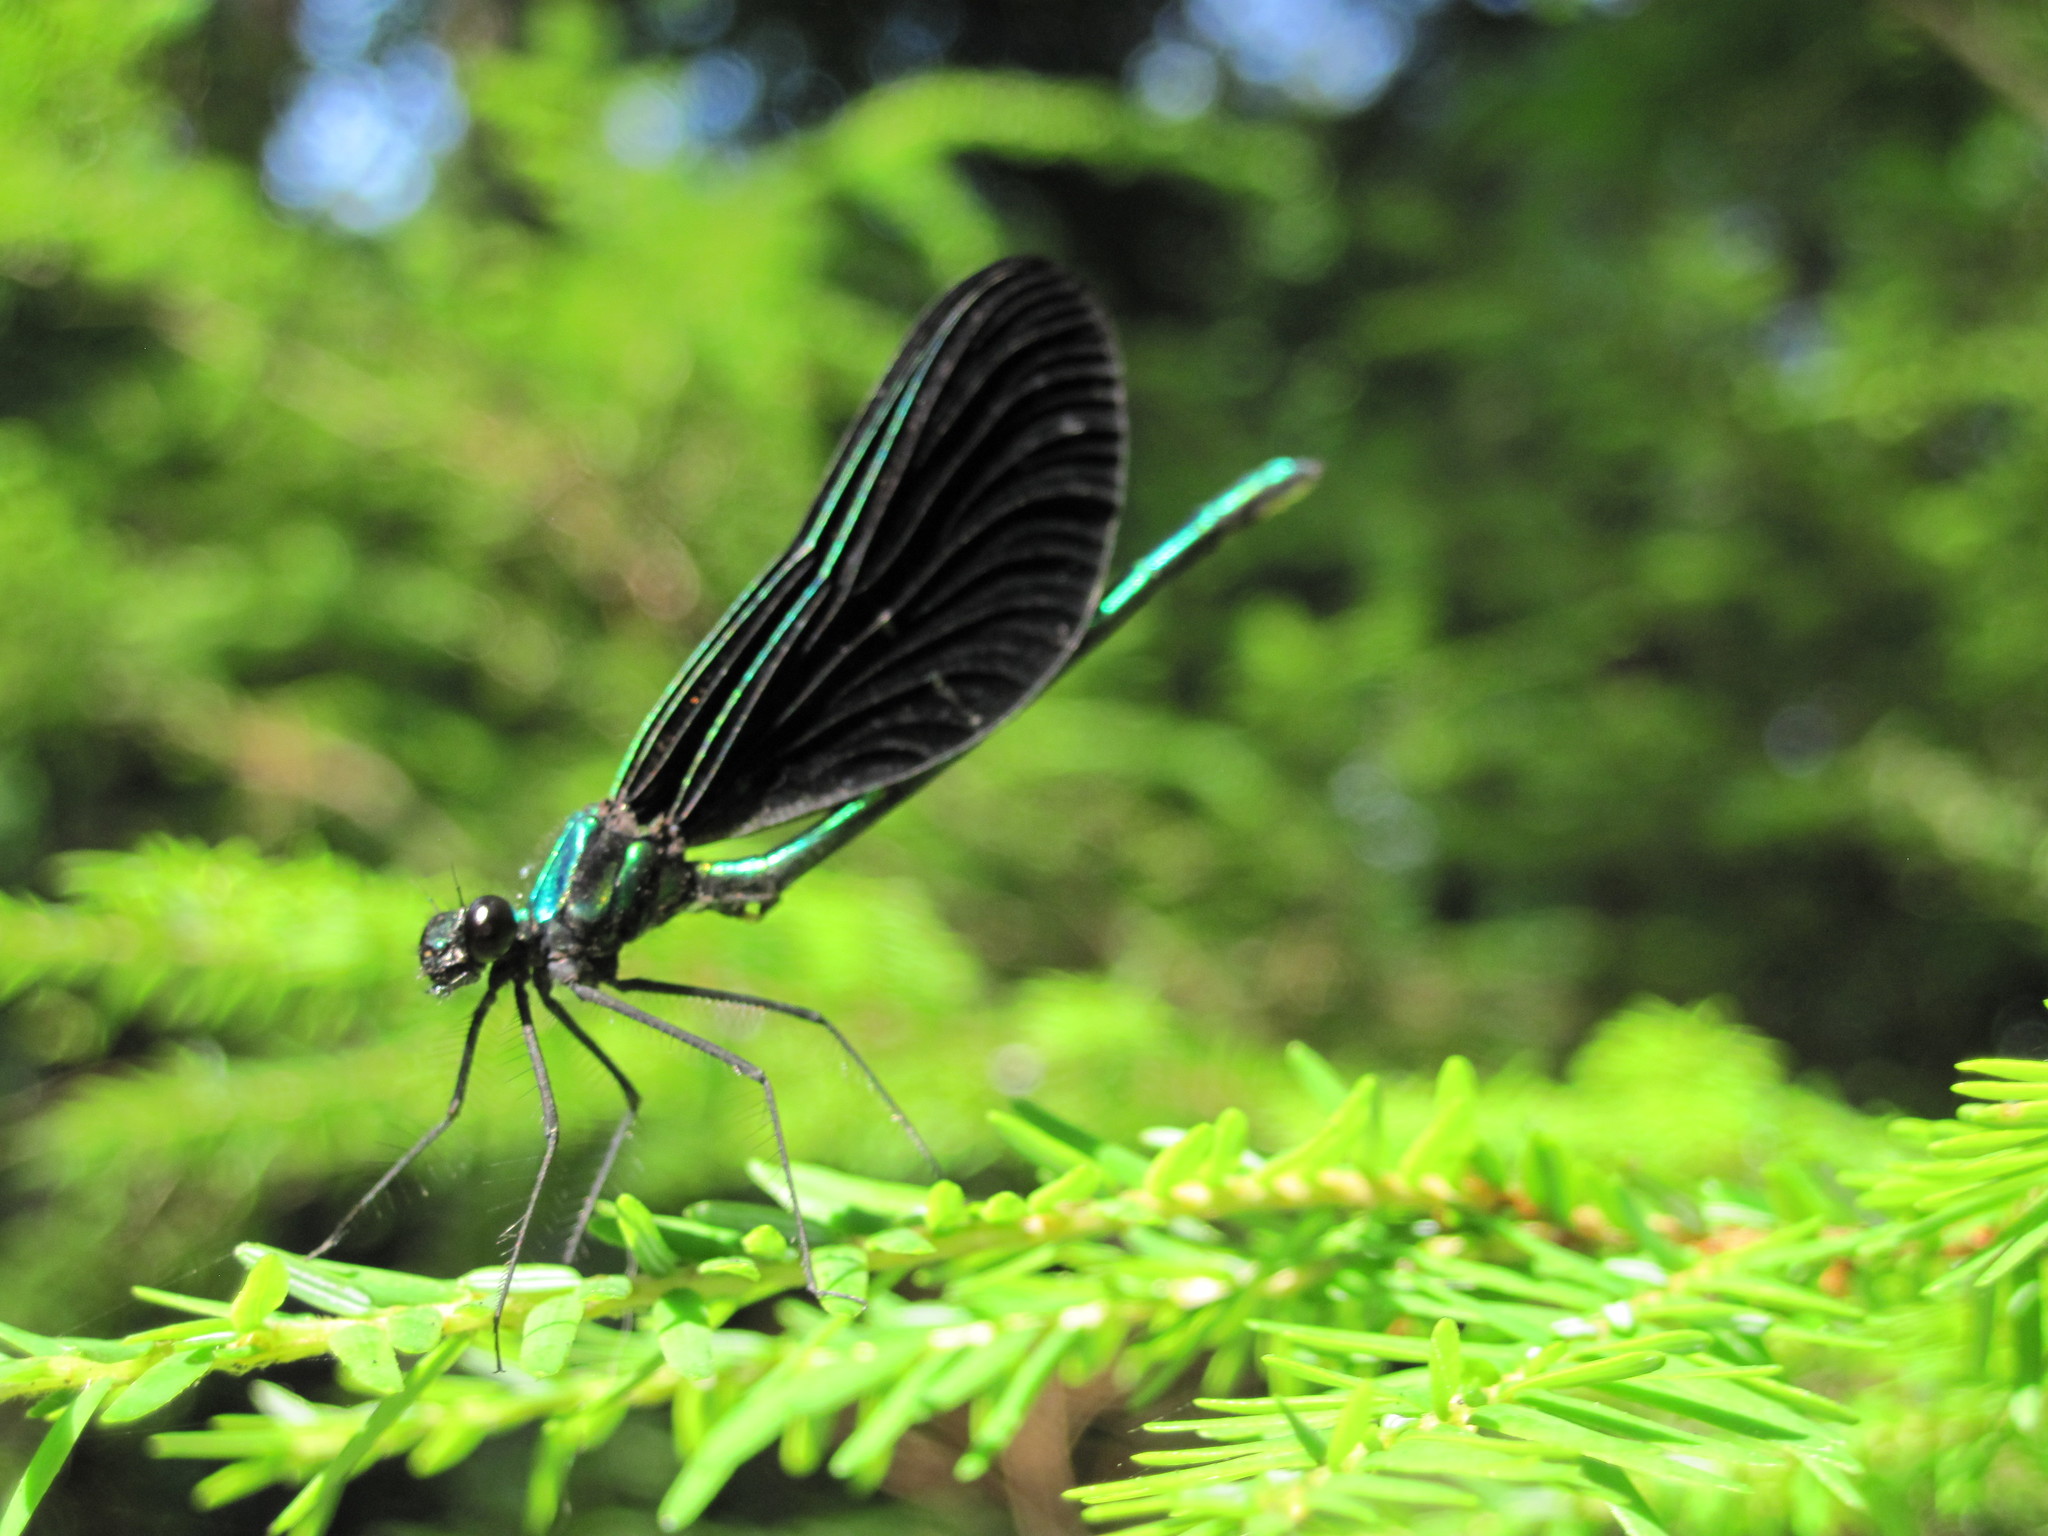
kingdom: Animalia
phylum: Arthropoda
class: Insecta
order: Odonata
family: Calopterygidae
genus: Calopteryx
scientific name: Calopteryx maculata
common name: Ebony jewelwing
